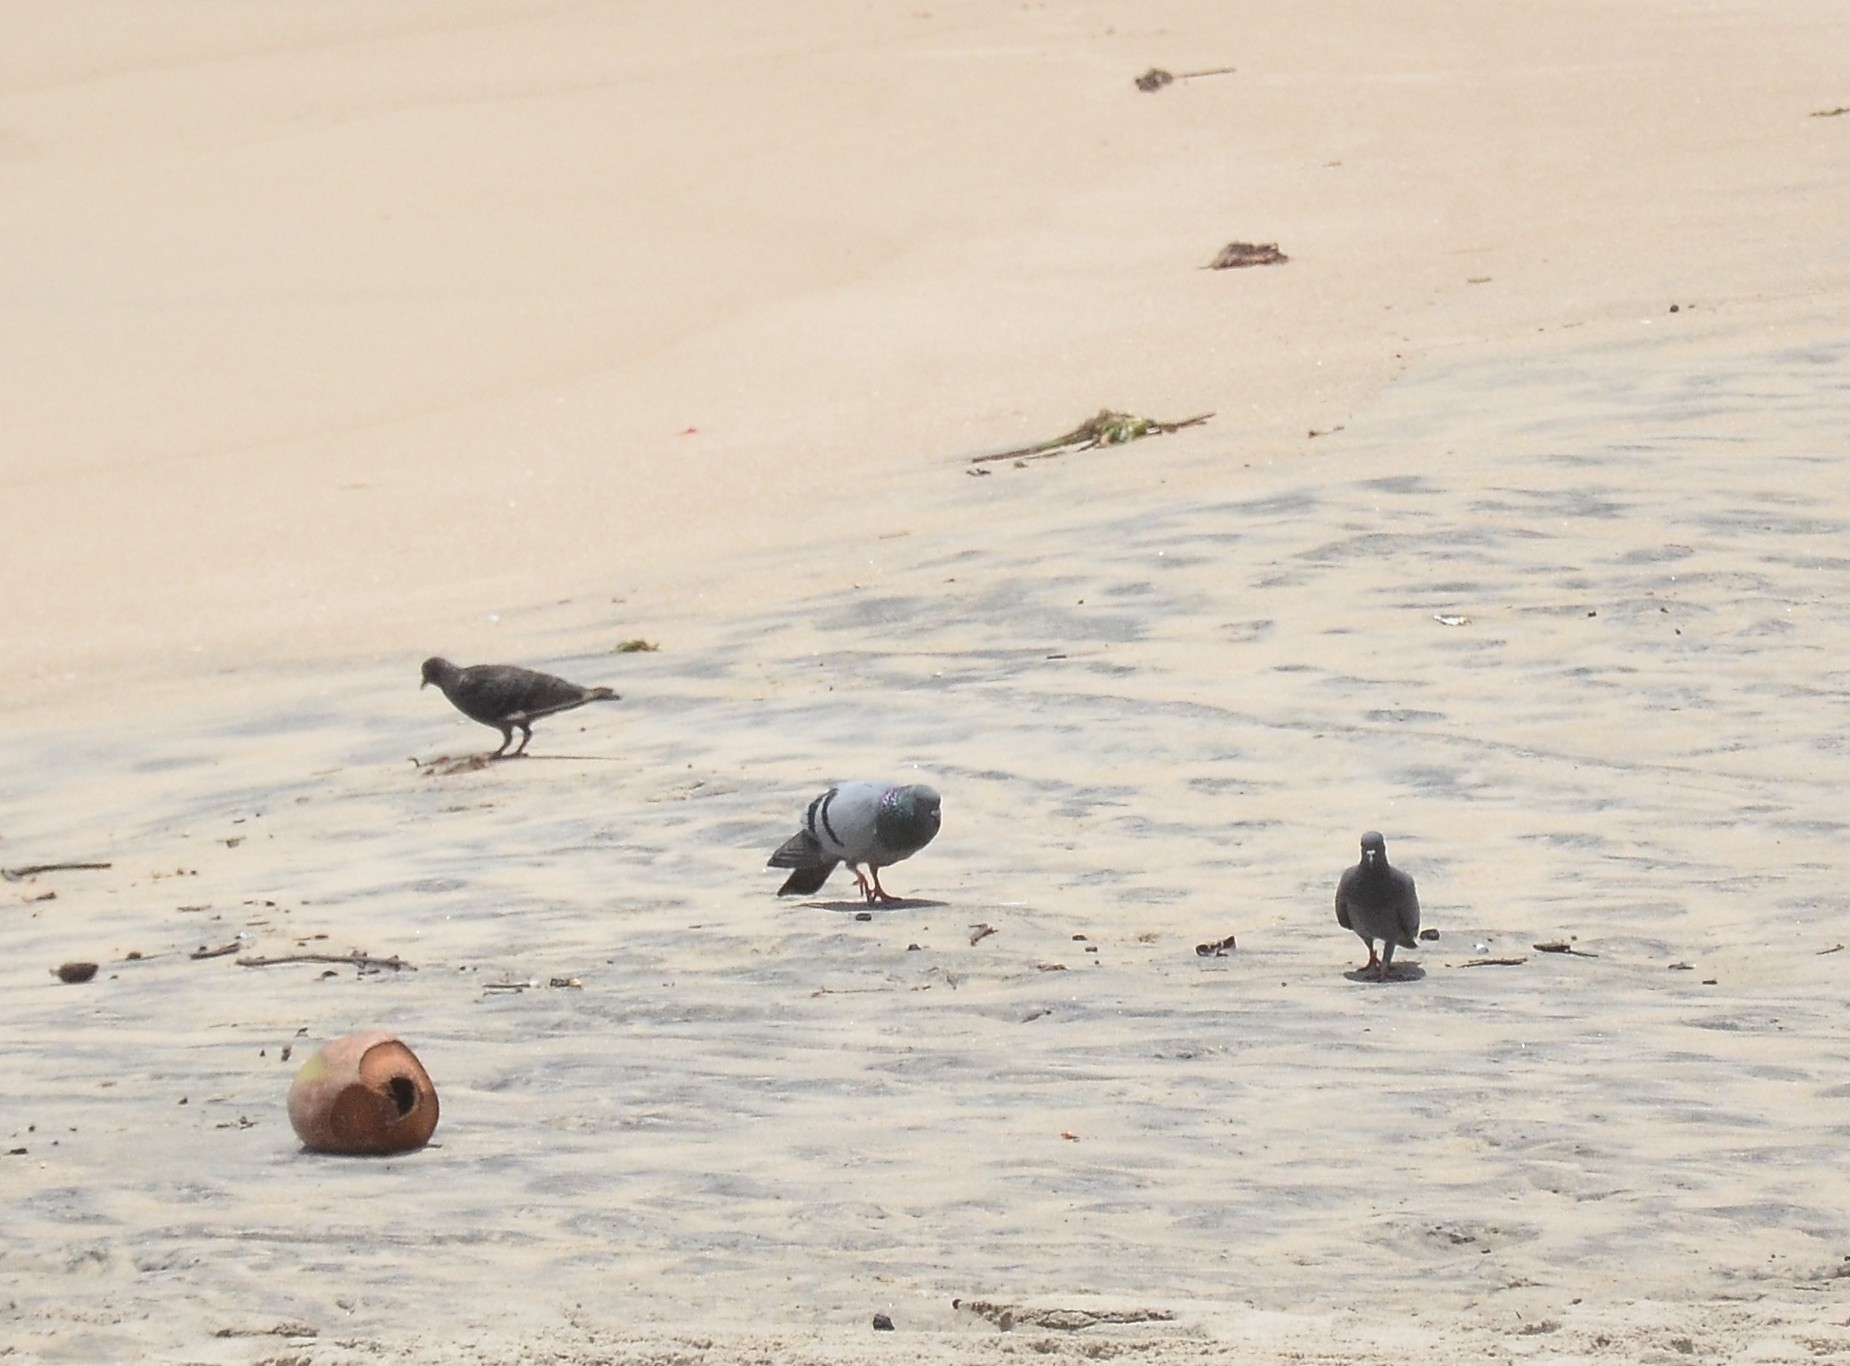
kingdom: Animalia
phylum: Chordata
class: Aves
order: Columbiformes
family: Columbidae
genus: Columba
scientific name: Columba livia
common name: Rock pigeon
